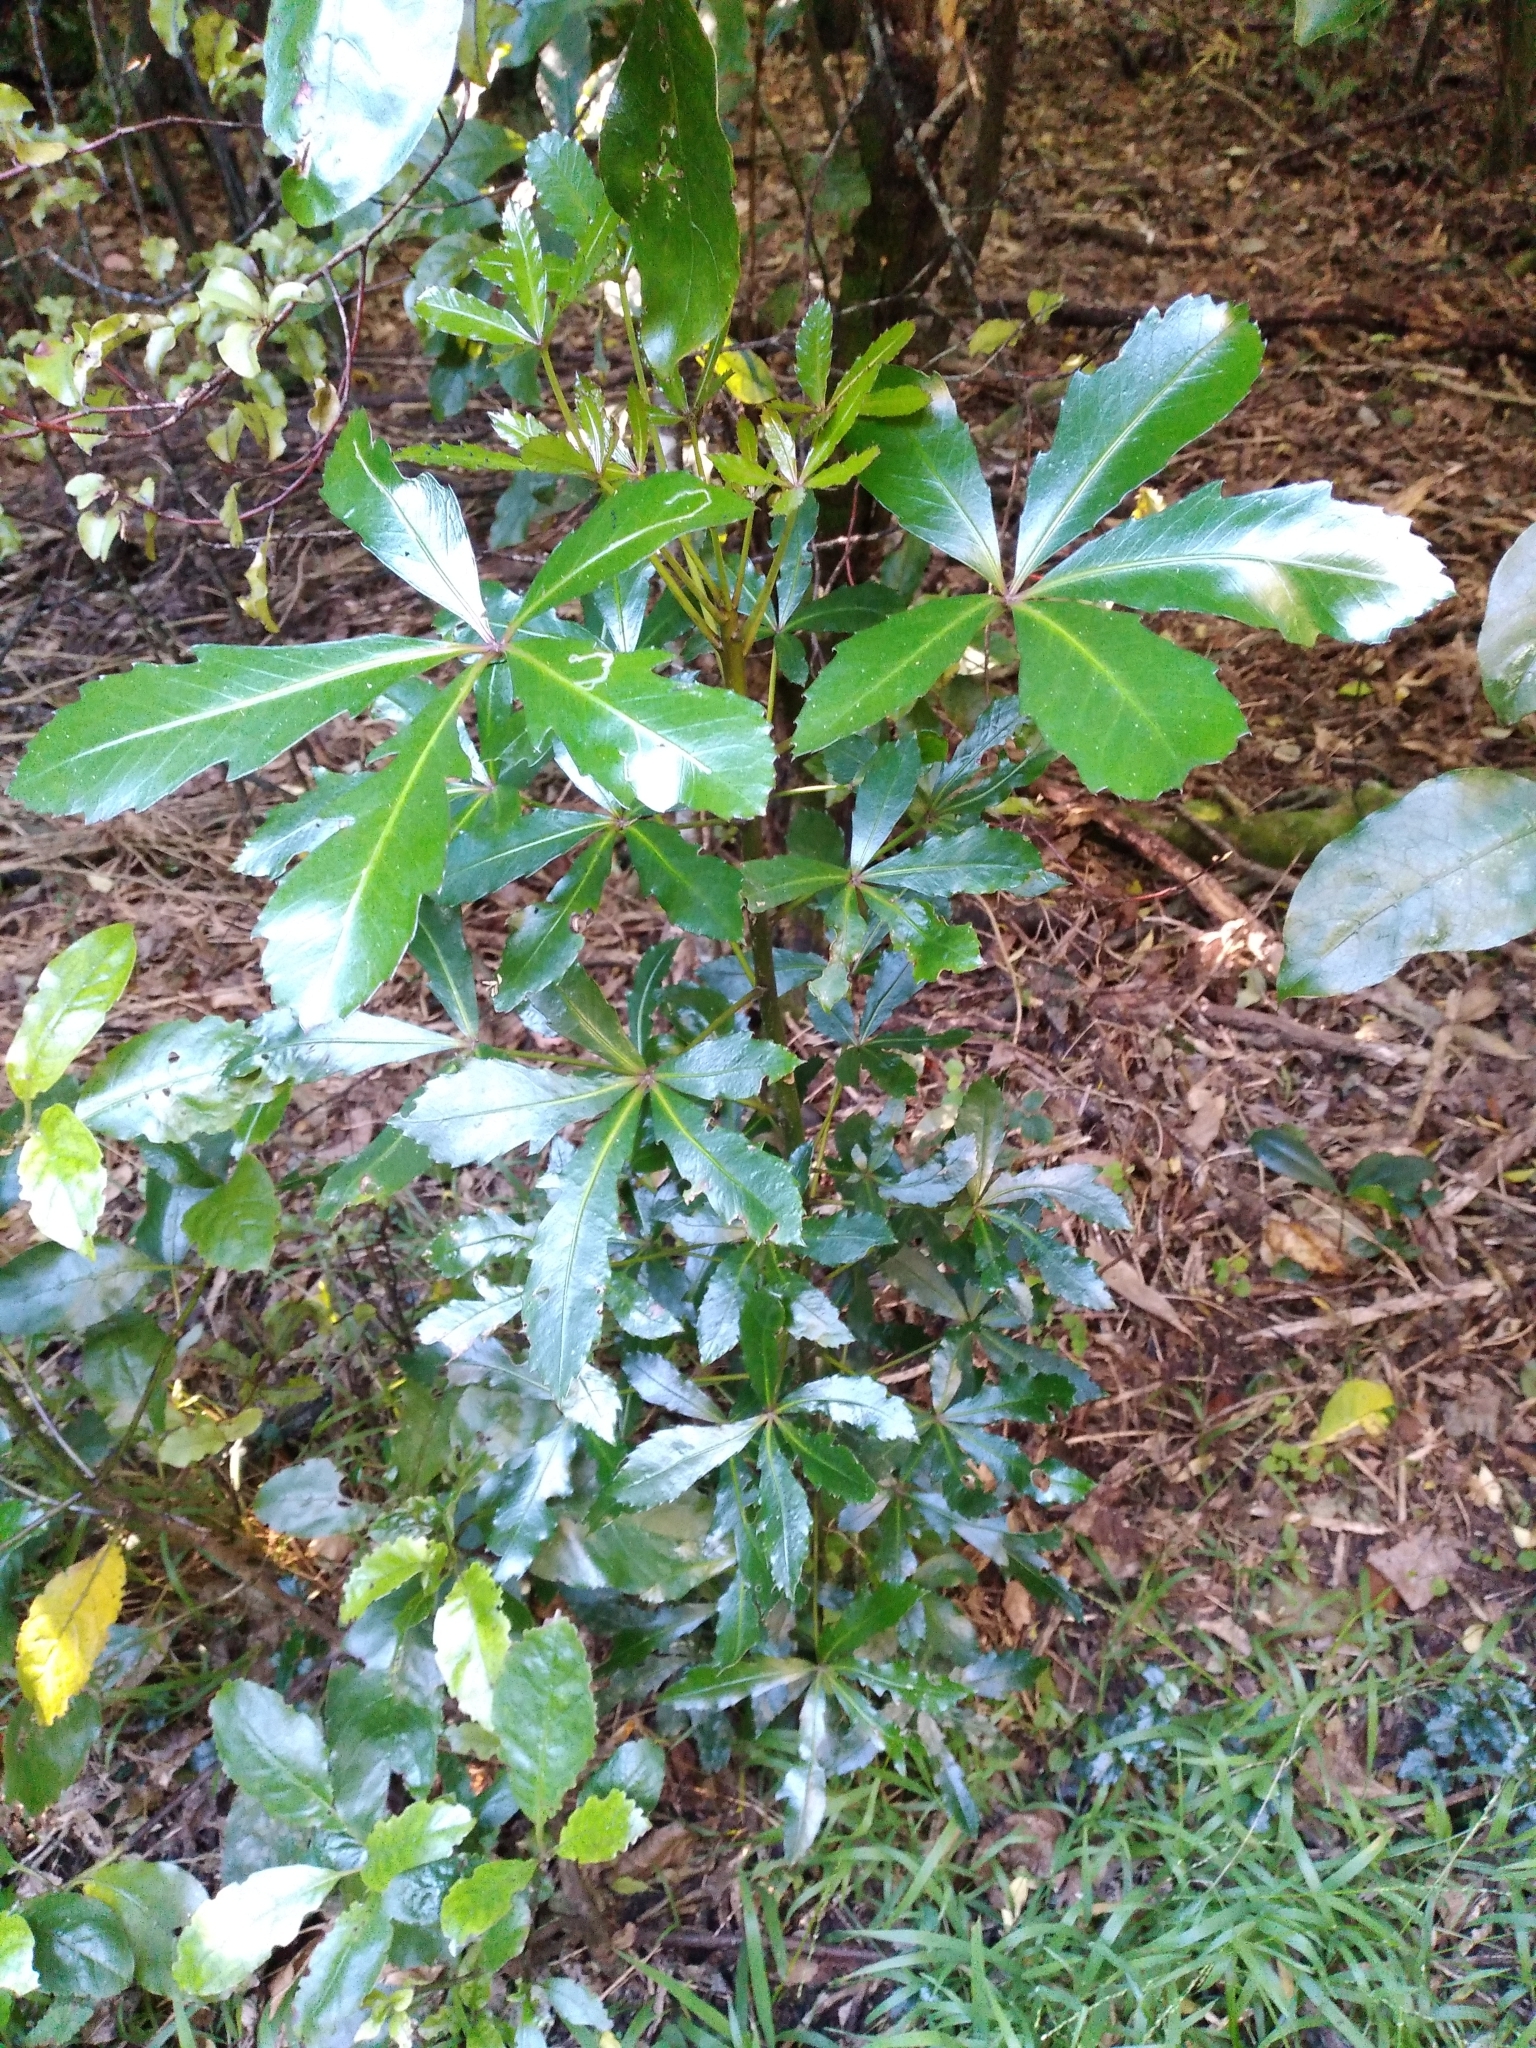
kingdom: Plantae
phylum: Tracheophyta
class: Magnoliopsida
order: Apiales
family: Araliaceae
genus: Pseudopanax
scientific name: Pseudopanax
